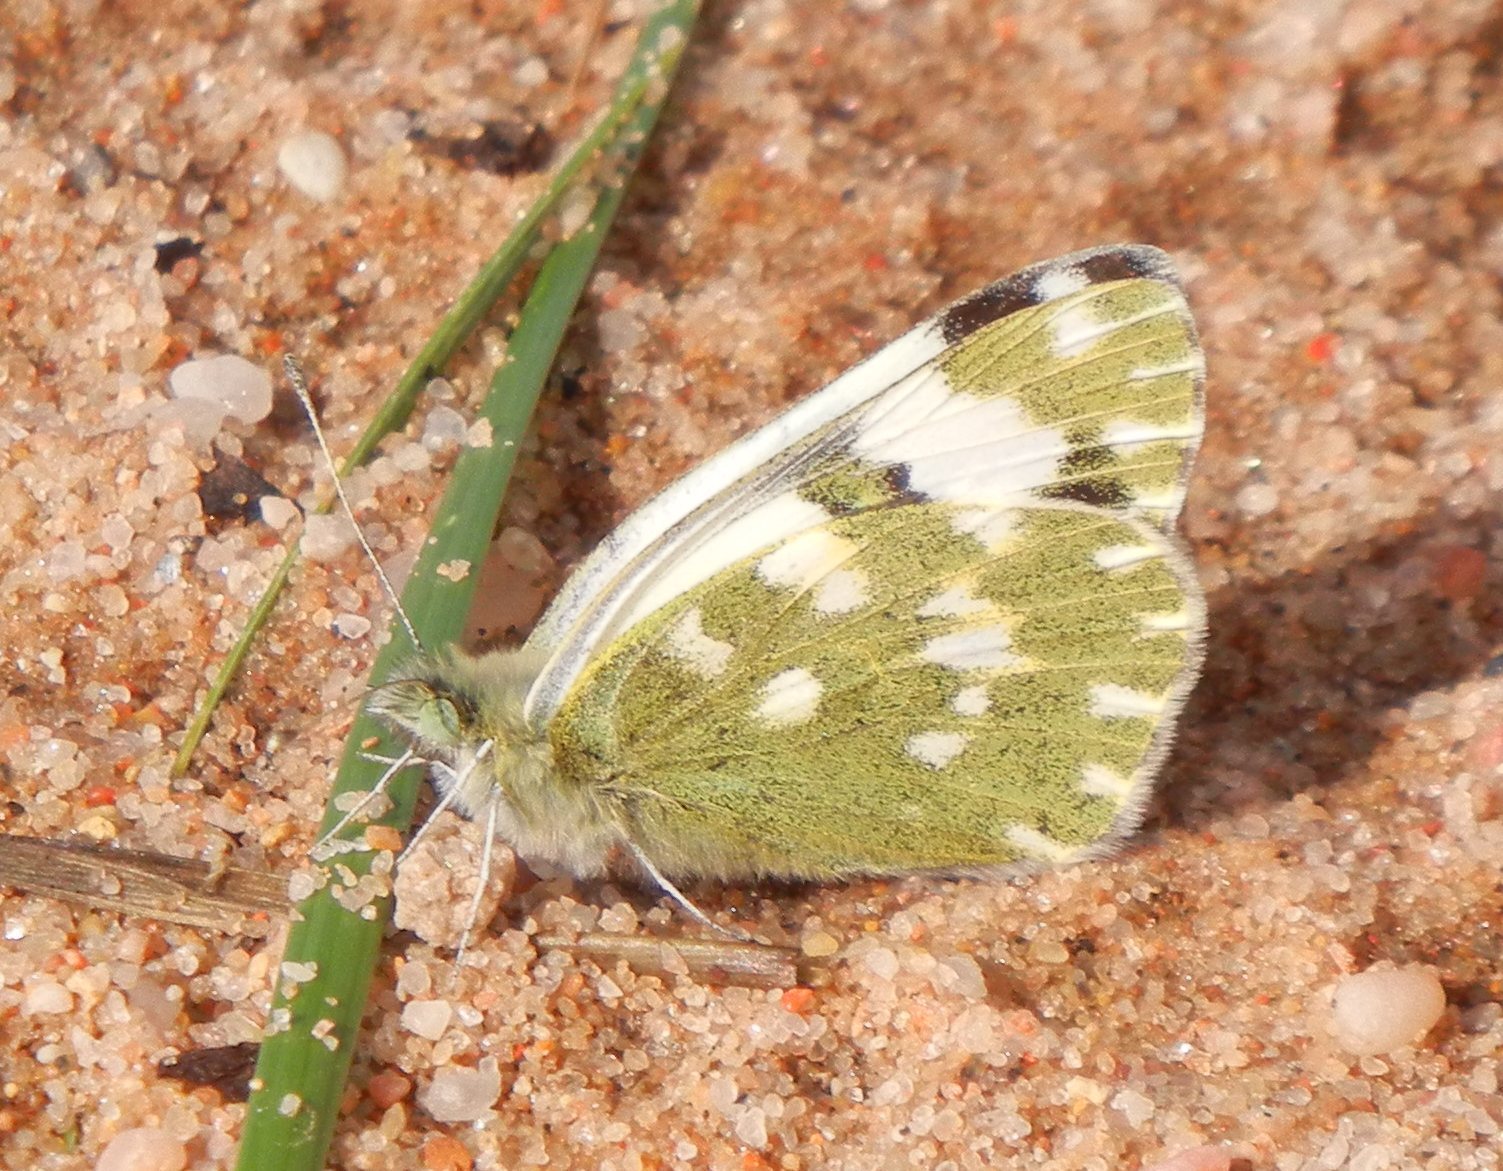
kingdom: Animalia
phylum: Arthropoda
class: Insecta
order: Lepidoptera
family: Pieridae
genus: Pontia
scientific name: Pontia daplidice
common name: Bath white
